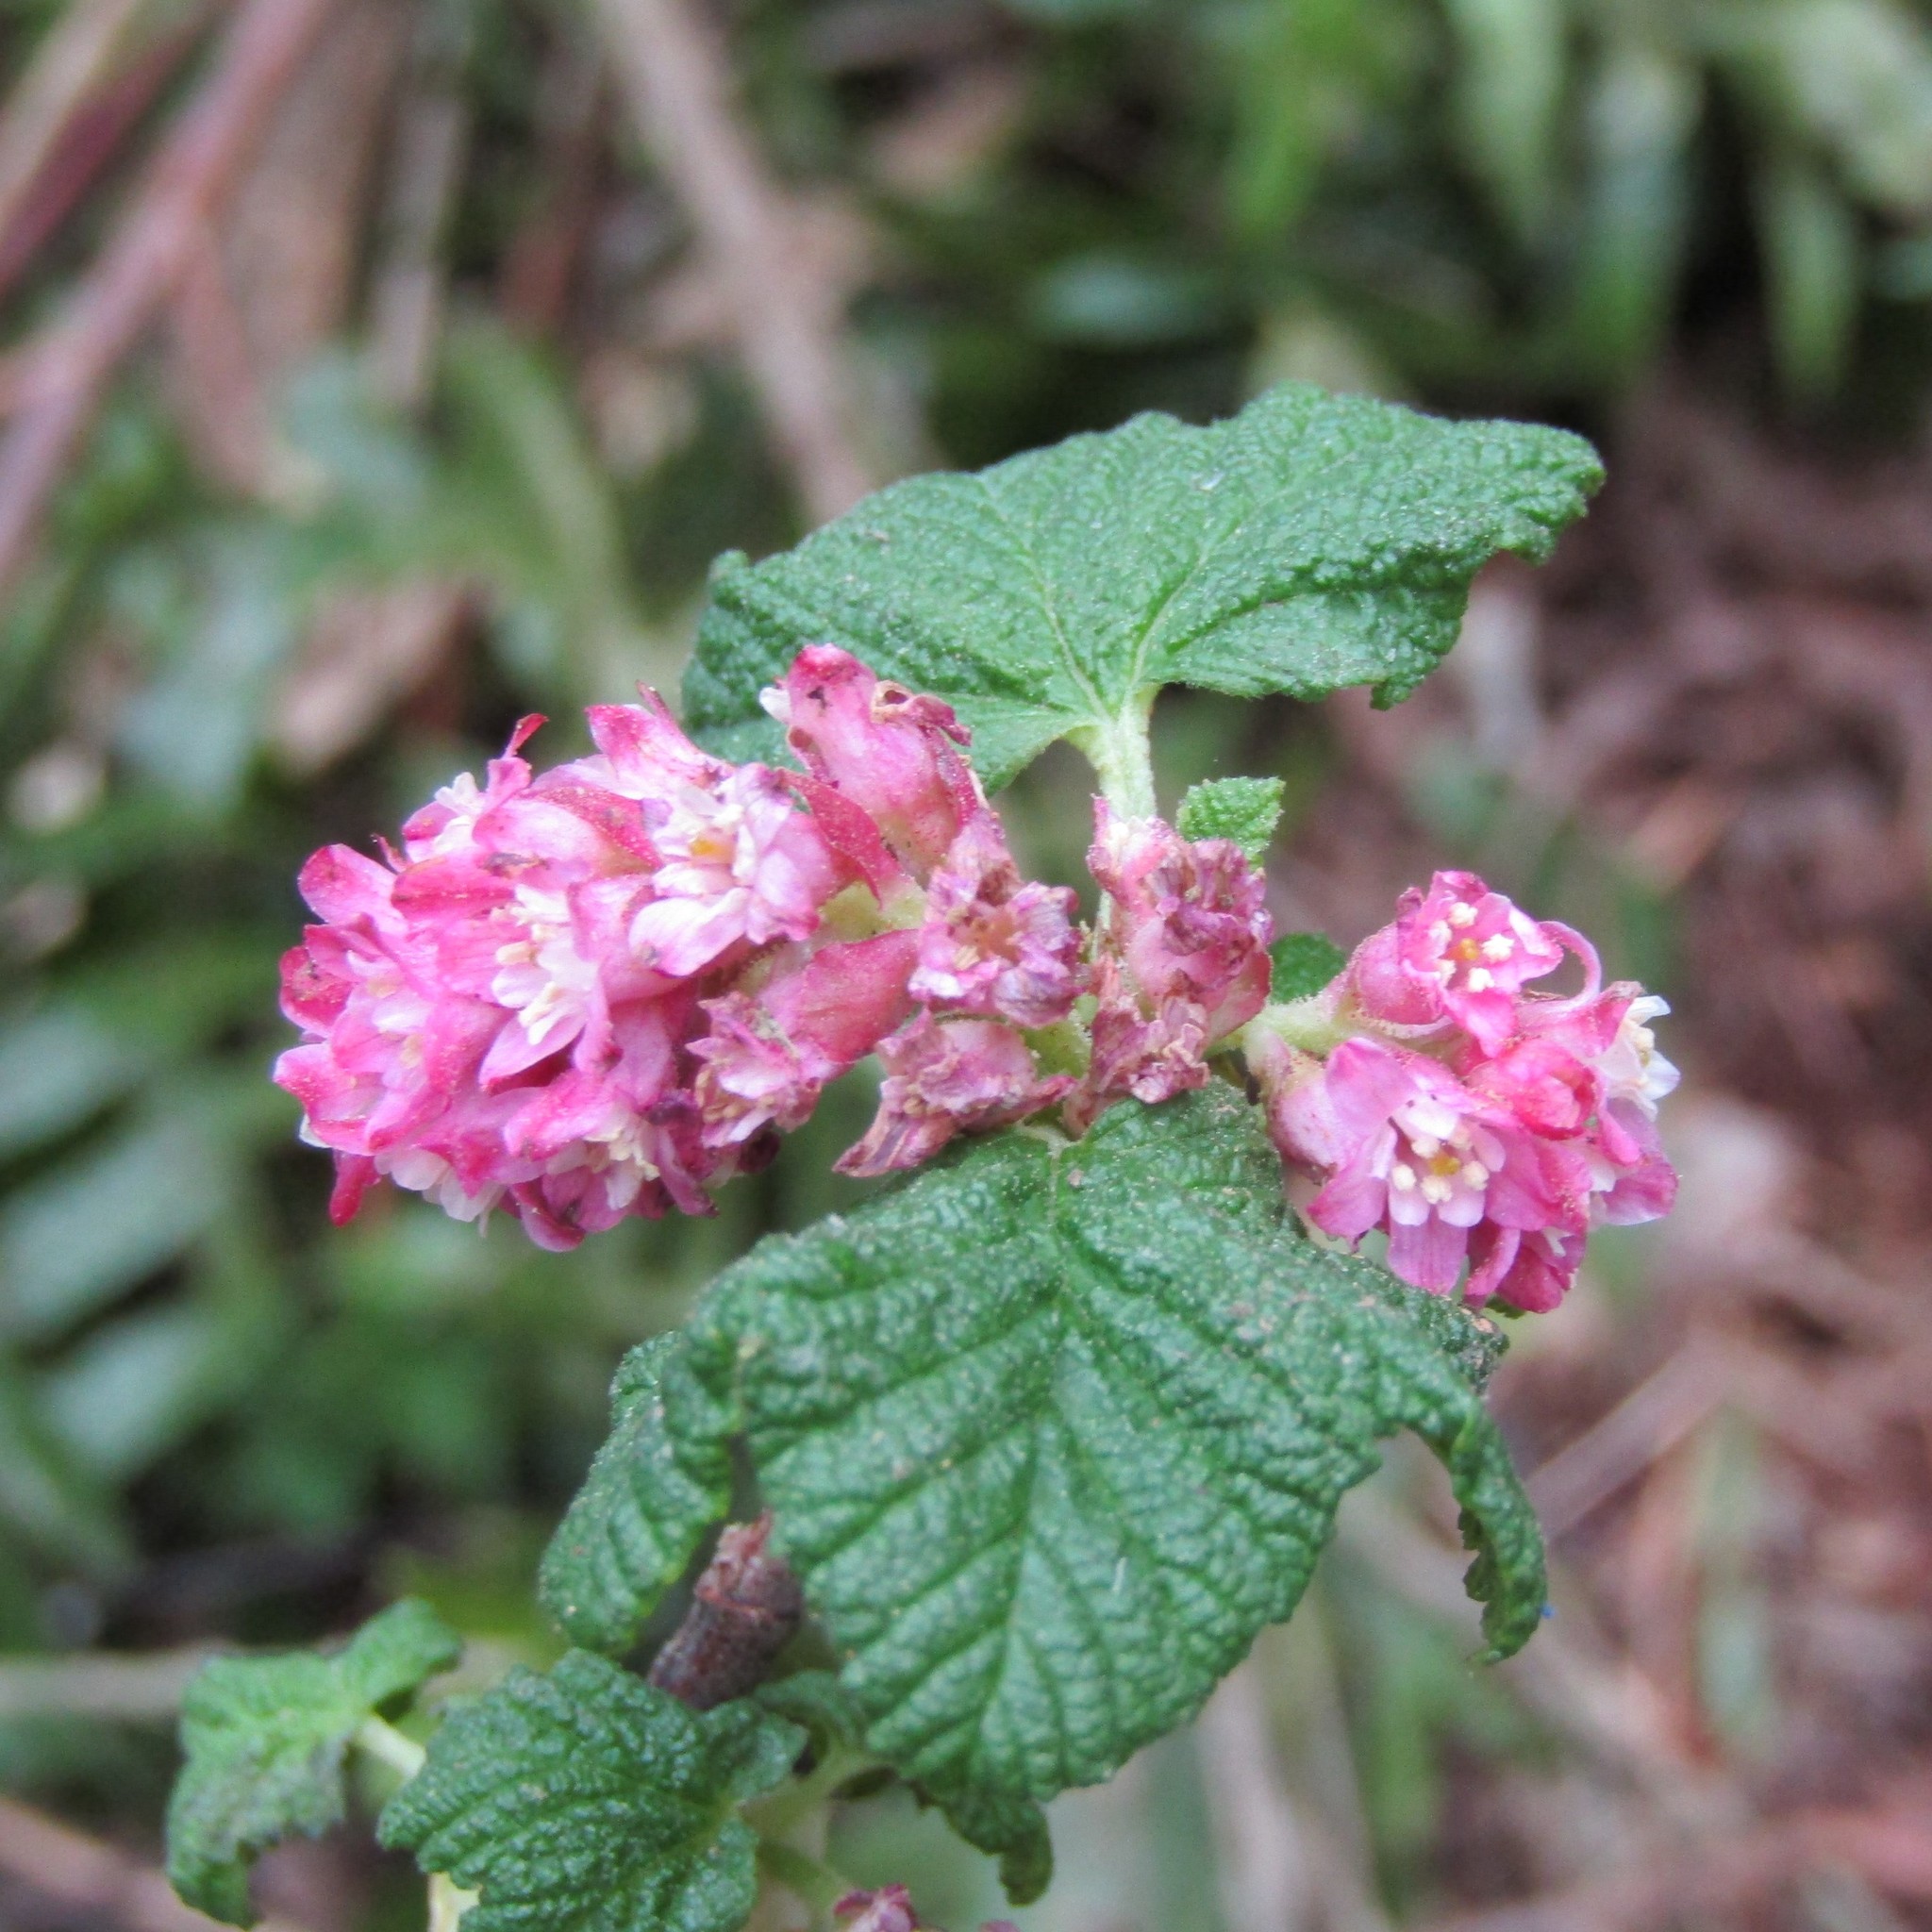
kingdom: Plantae
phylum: Tracheophyta
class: Magnoliopsida
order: Saxifragales
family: Grossulariaceae
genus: Ribes
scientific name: Ribes sanguineum
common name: Flowering currant
